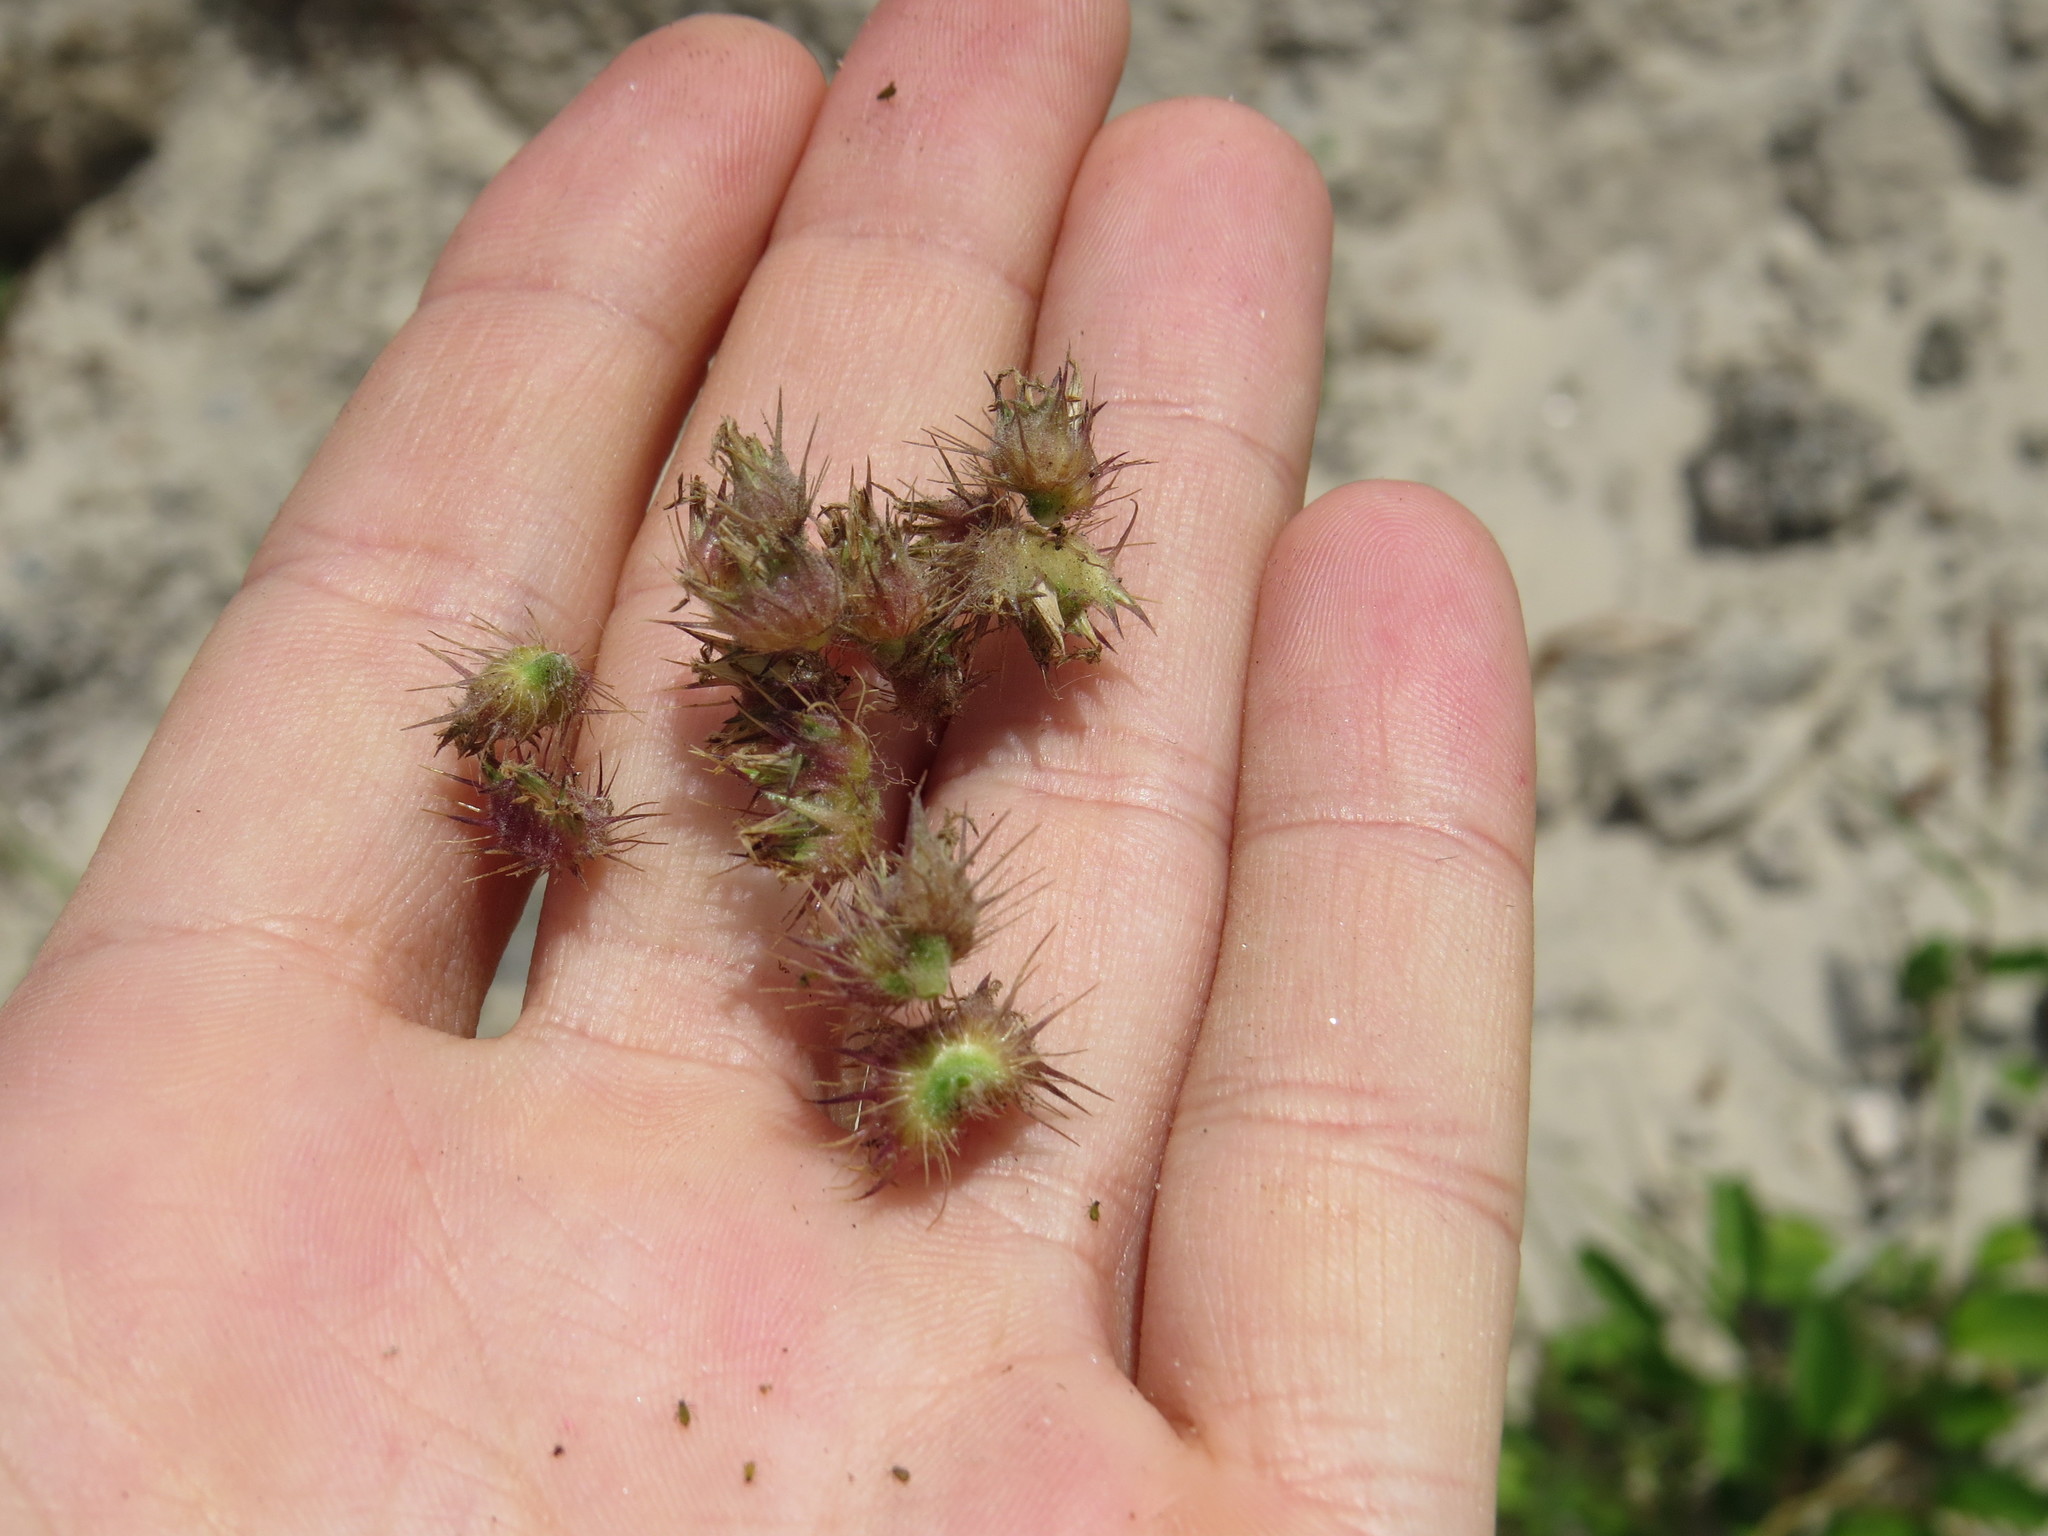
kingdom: Plantae
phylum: Tracheophyta
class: Liliopsida
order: Poales
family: Poaceae
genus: Cenchrus
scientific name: Cenchrus echinatus
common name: Southern sandbur
